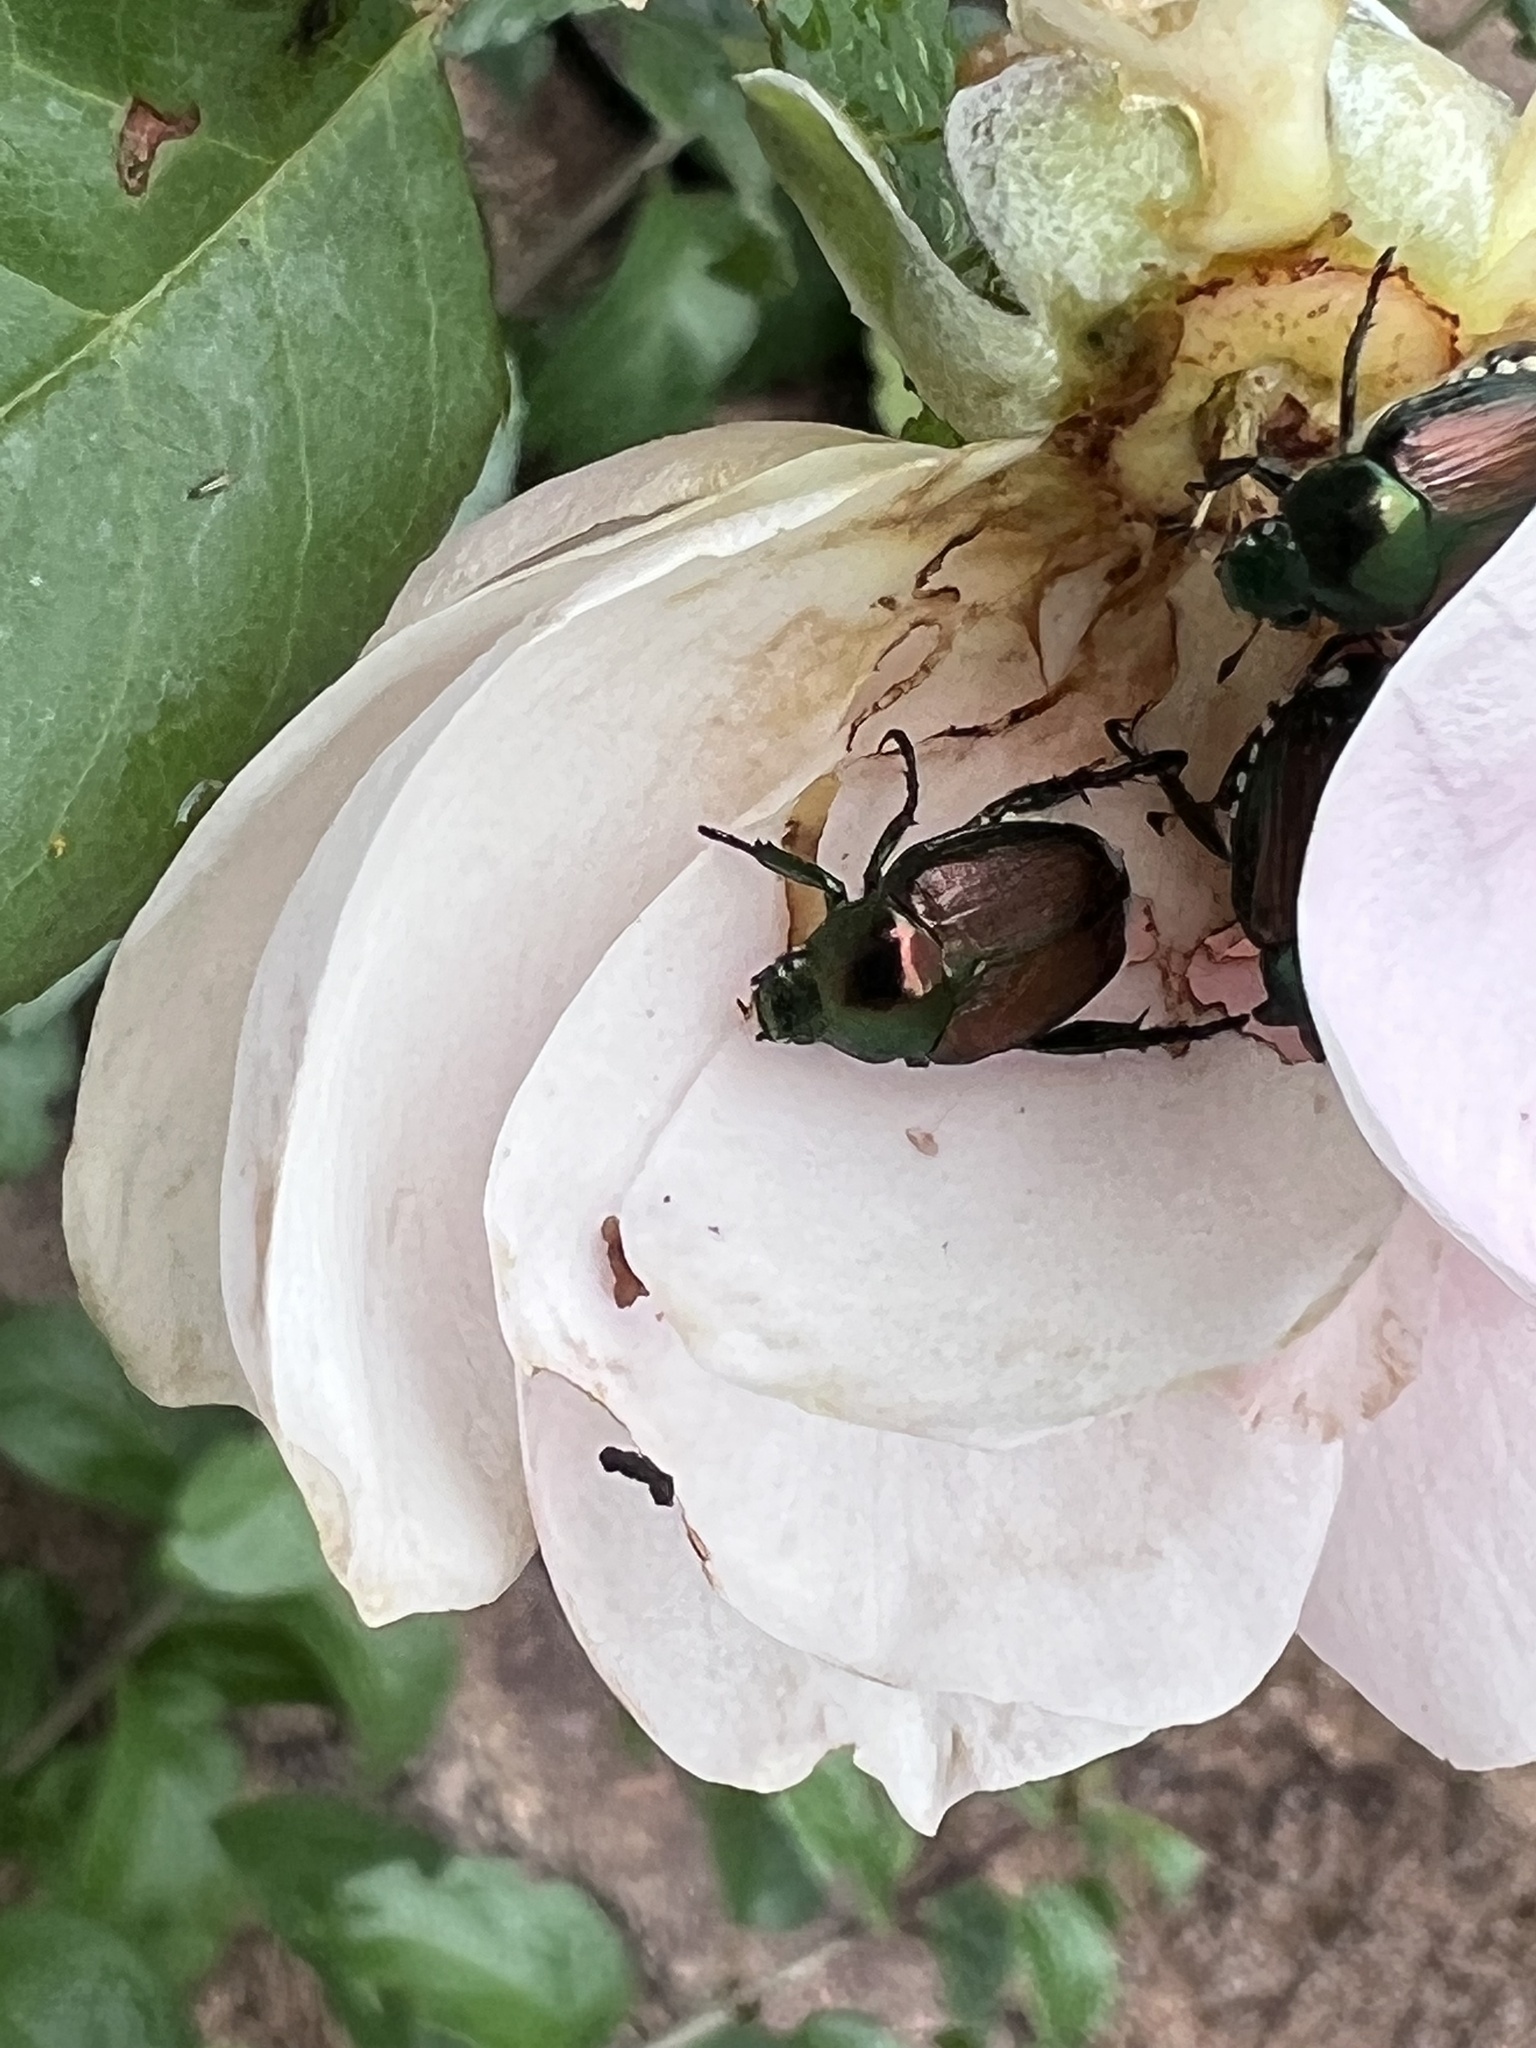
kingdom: Animalia
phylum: Arthropoda
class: Insecta
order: Coleoptera
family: Scarabaeidae
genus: Popillia
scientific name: Popillia japonica
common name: Japanese beetle
